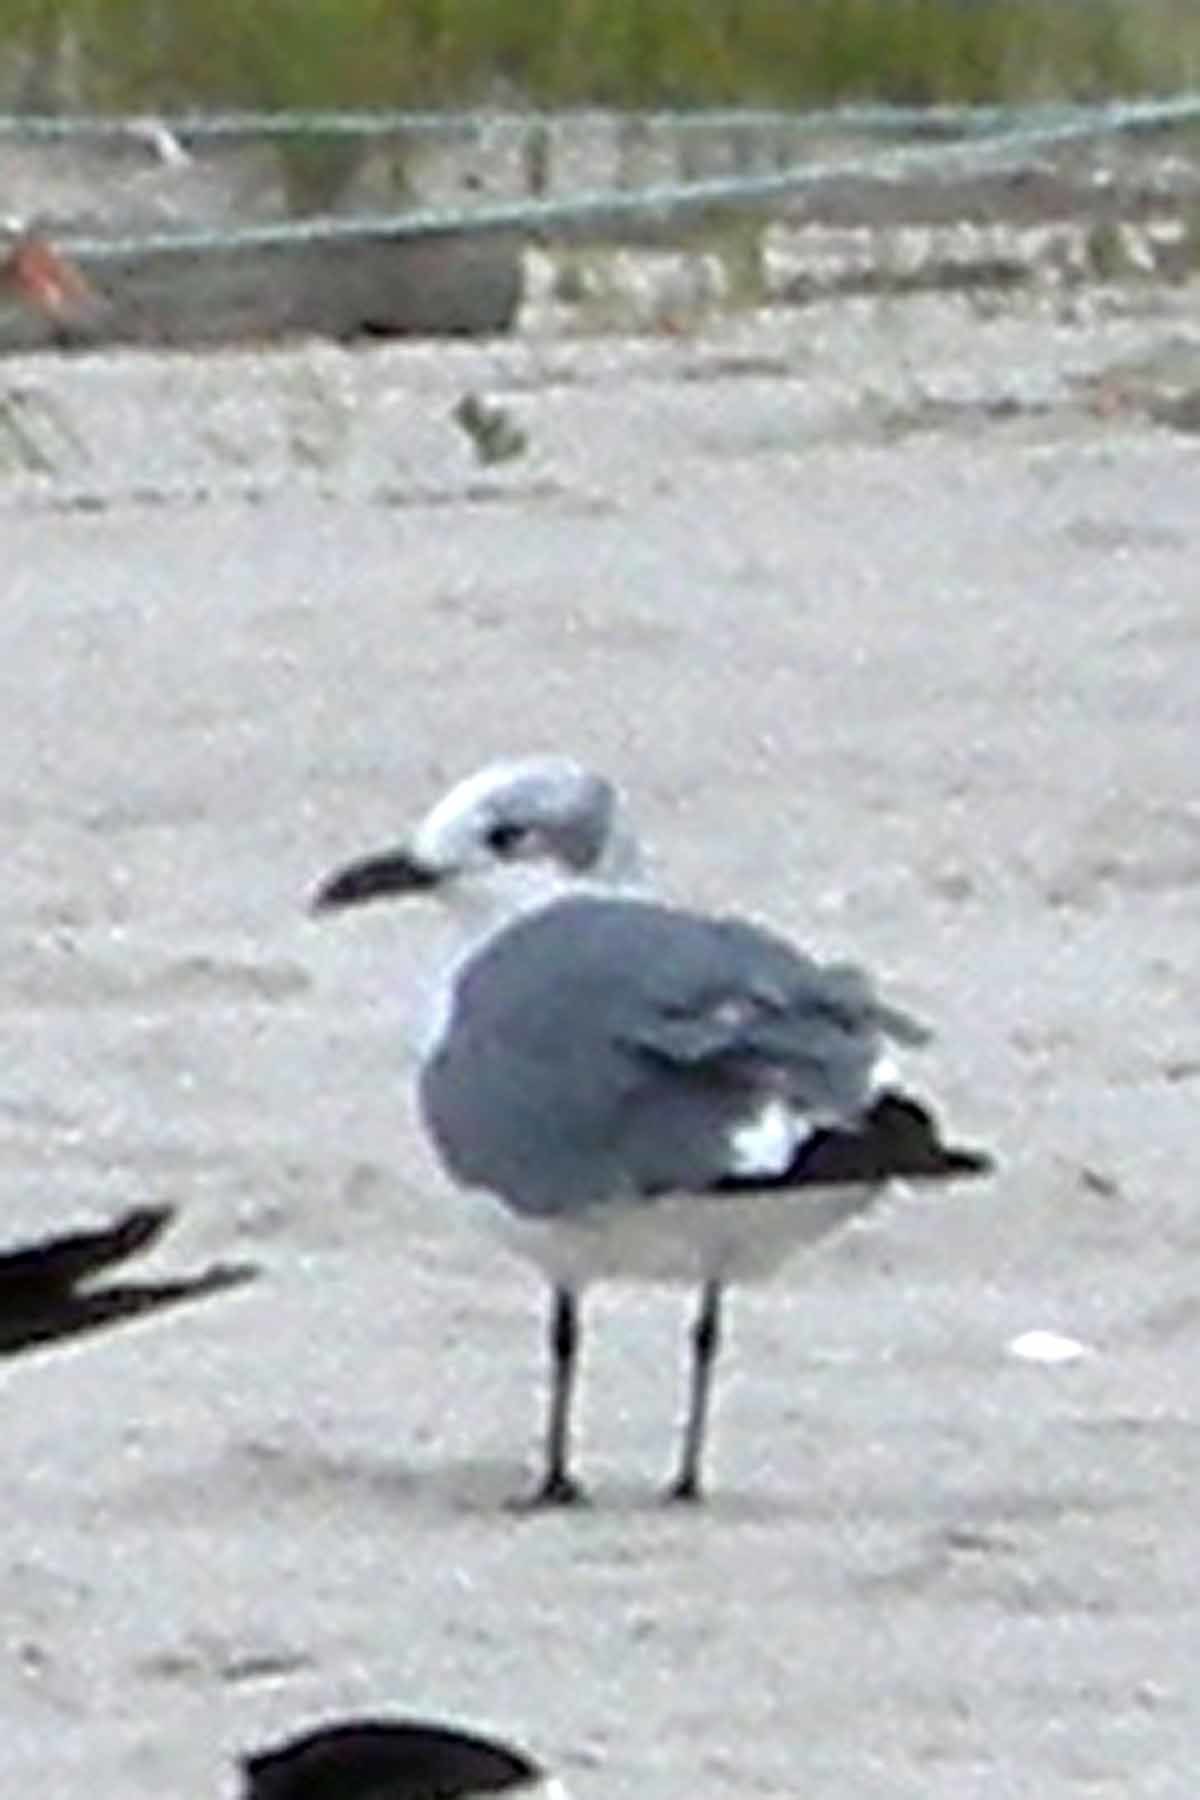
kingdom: Animalia
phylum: Chordata
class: Aves
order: Charadriiformes
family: Laridae
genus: Leucophaeus
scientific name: Leucophaeus atricilla
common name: Laughing gull
